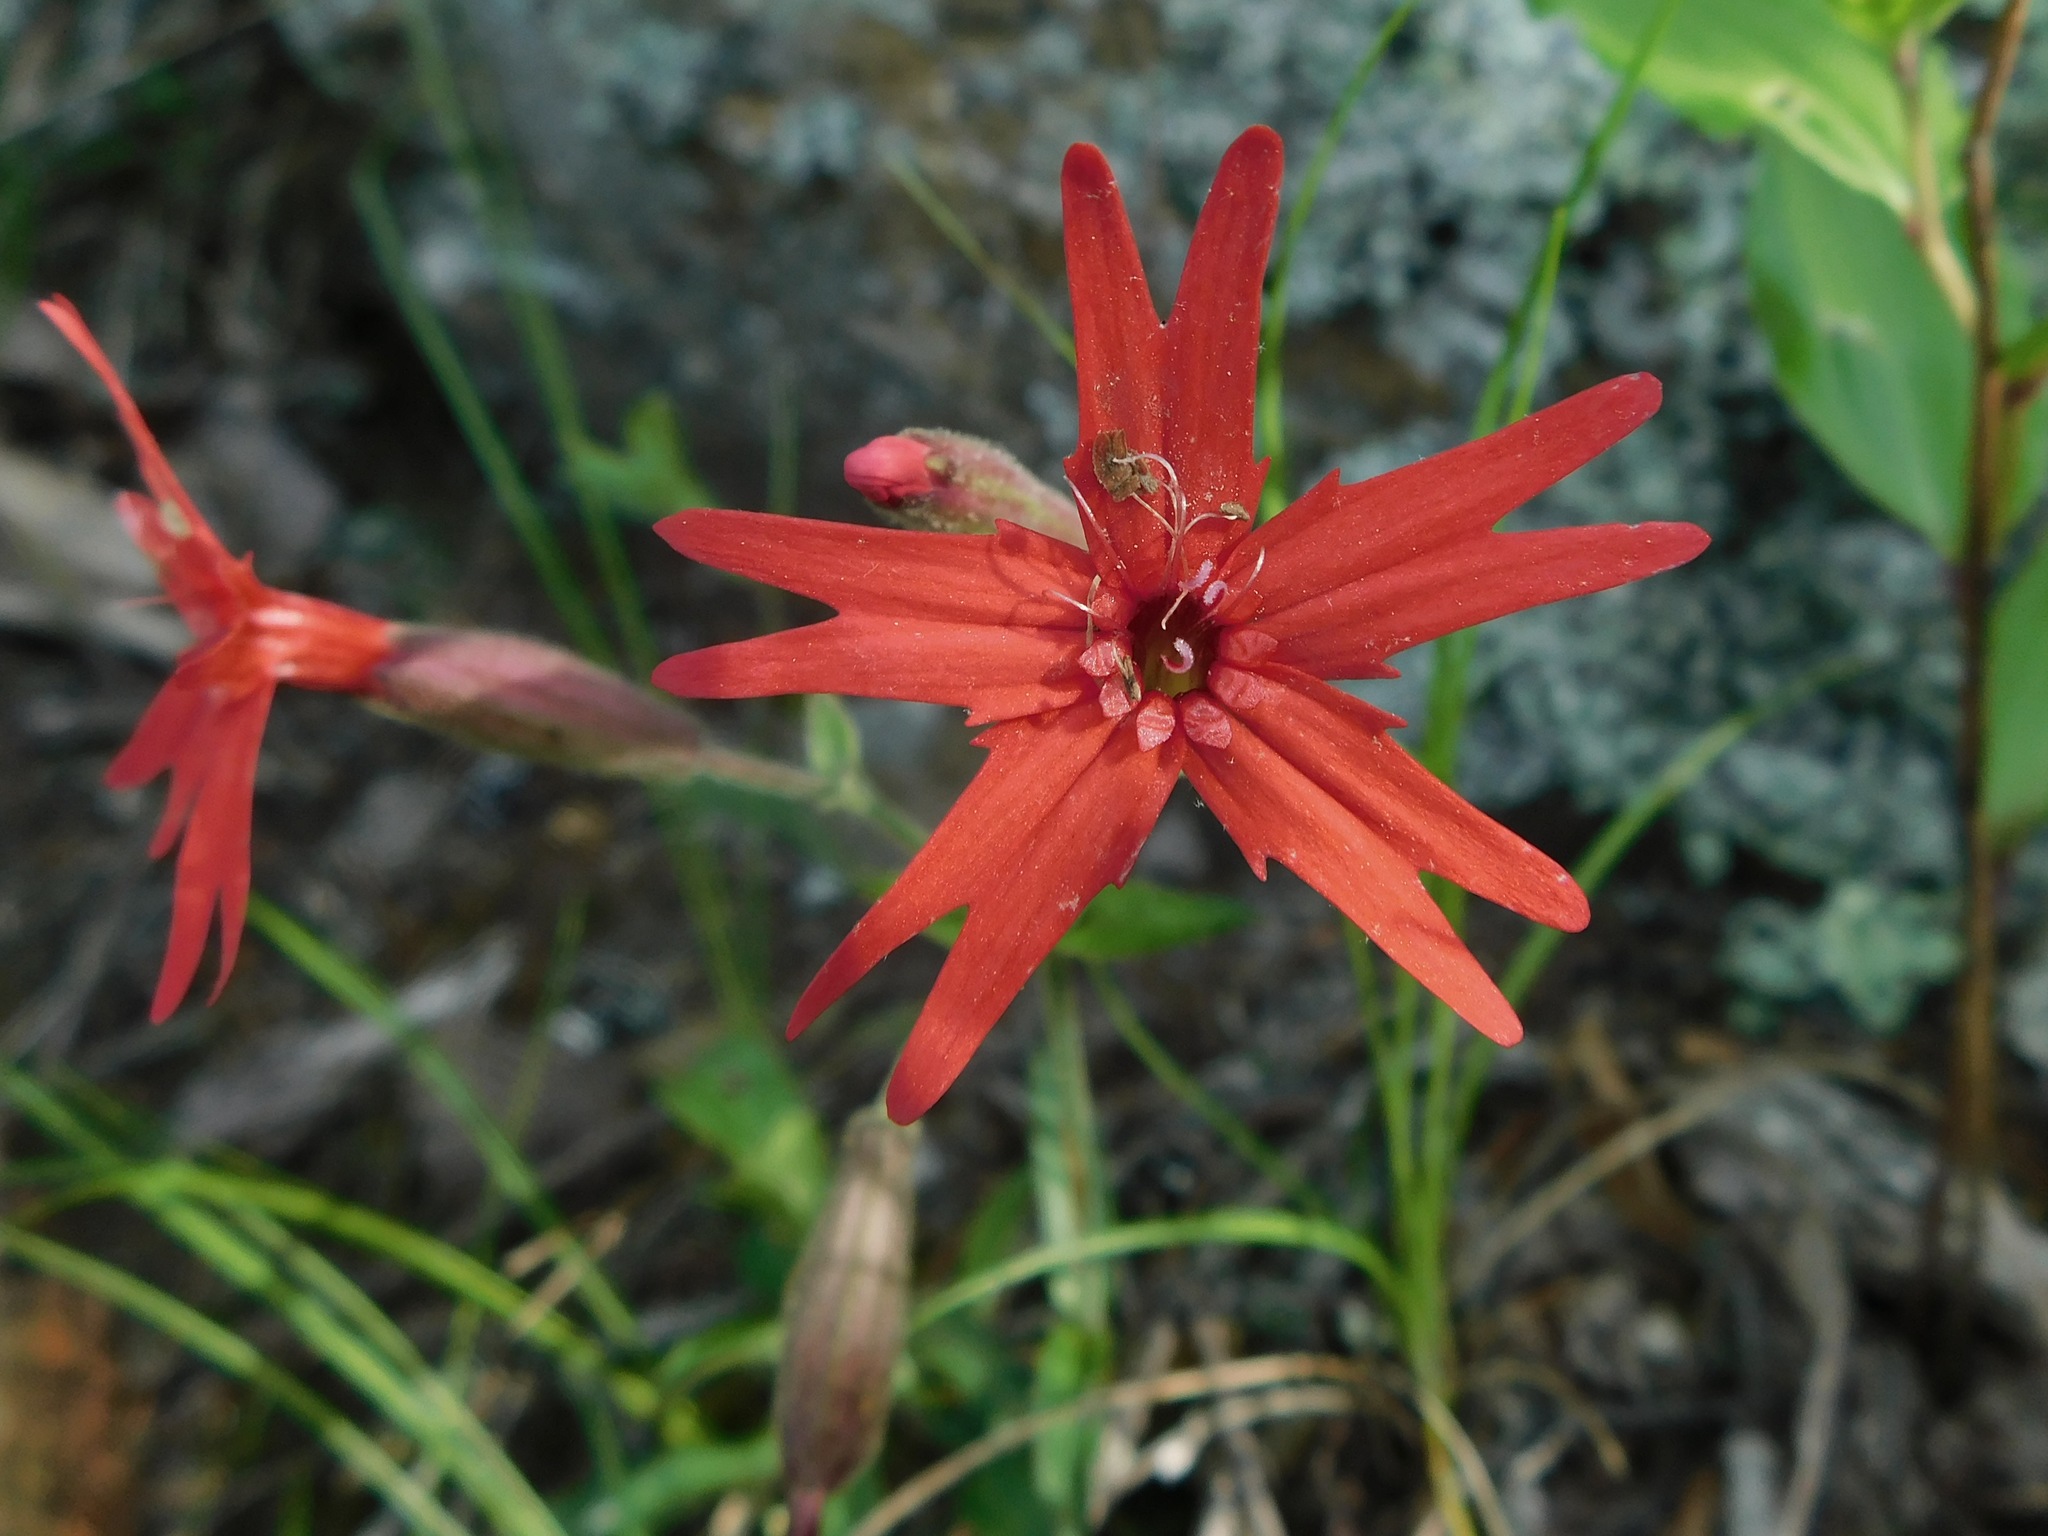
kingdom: Plantae
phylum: Tracheophyta
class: Magnoliopsida
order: Caryophyllales
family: Caryophyllaceae
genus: Silene
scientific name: Silene virginica
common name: Fire-pink
